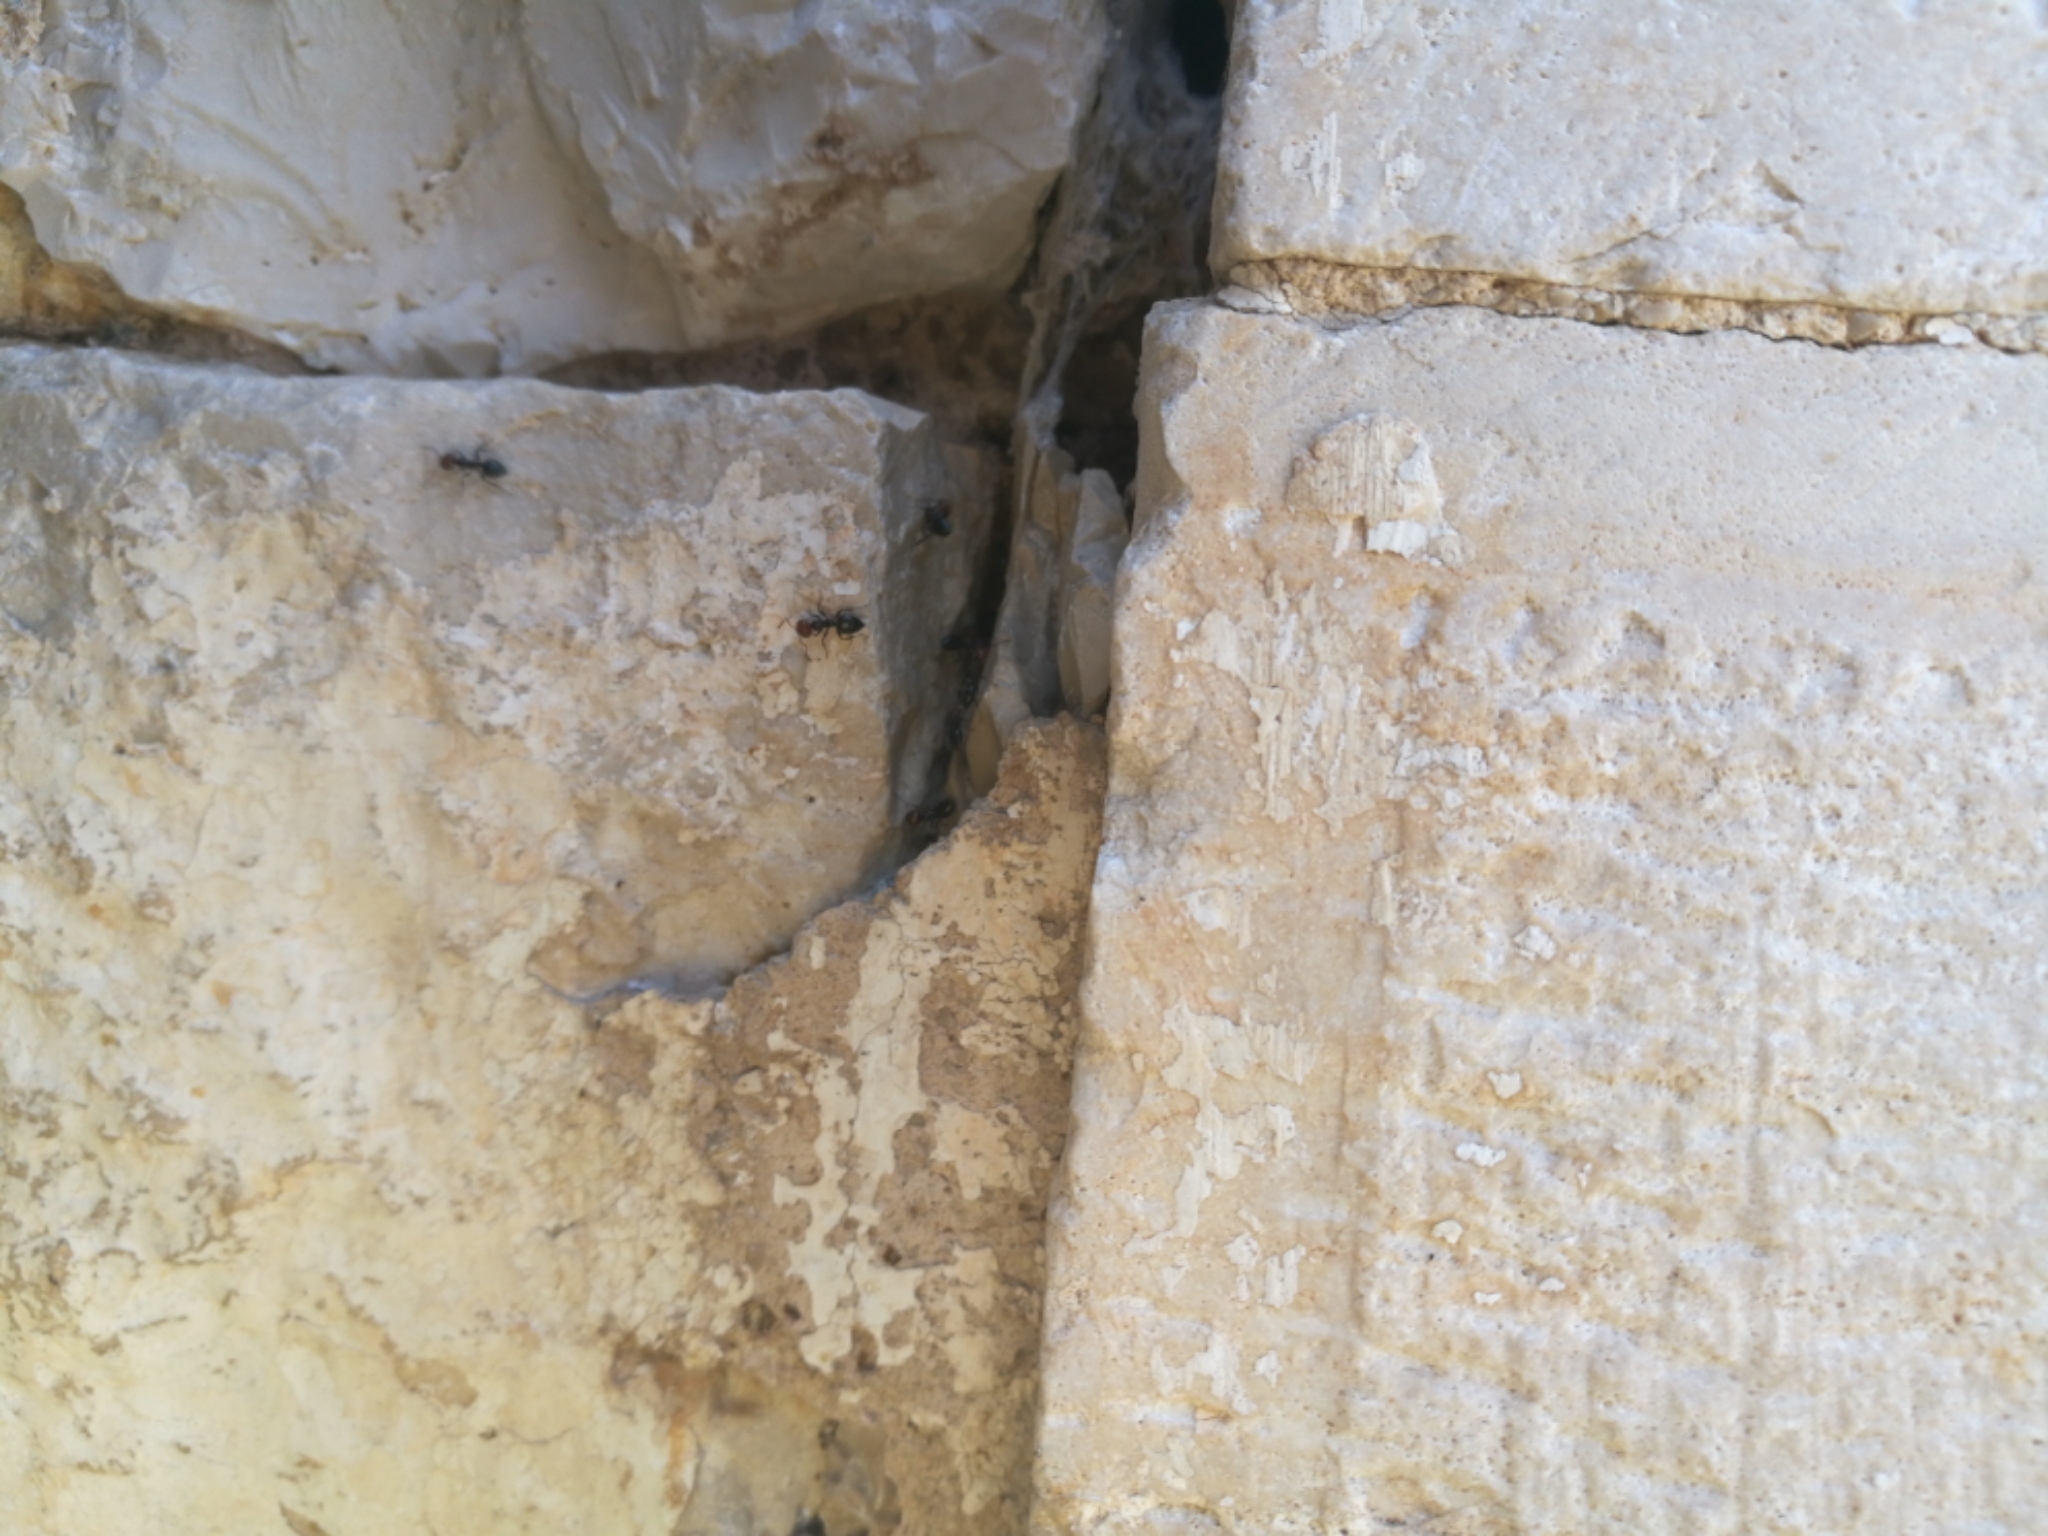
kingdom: Animalia
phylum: Arthropoda
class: Insecta
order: Hymenoptera
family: Formicidae
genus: Crematogaster
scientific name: Crematogaster scutellaris
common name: Fourmi du liège
